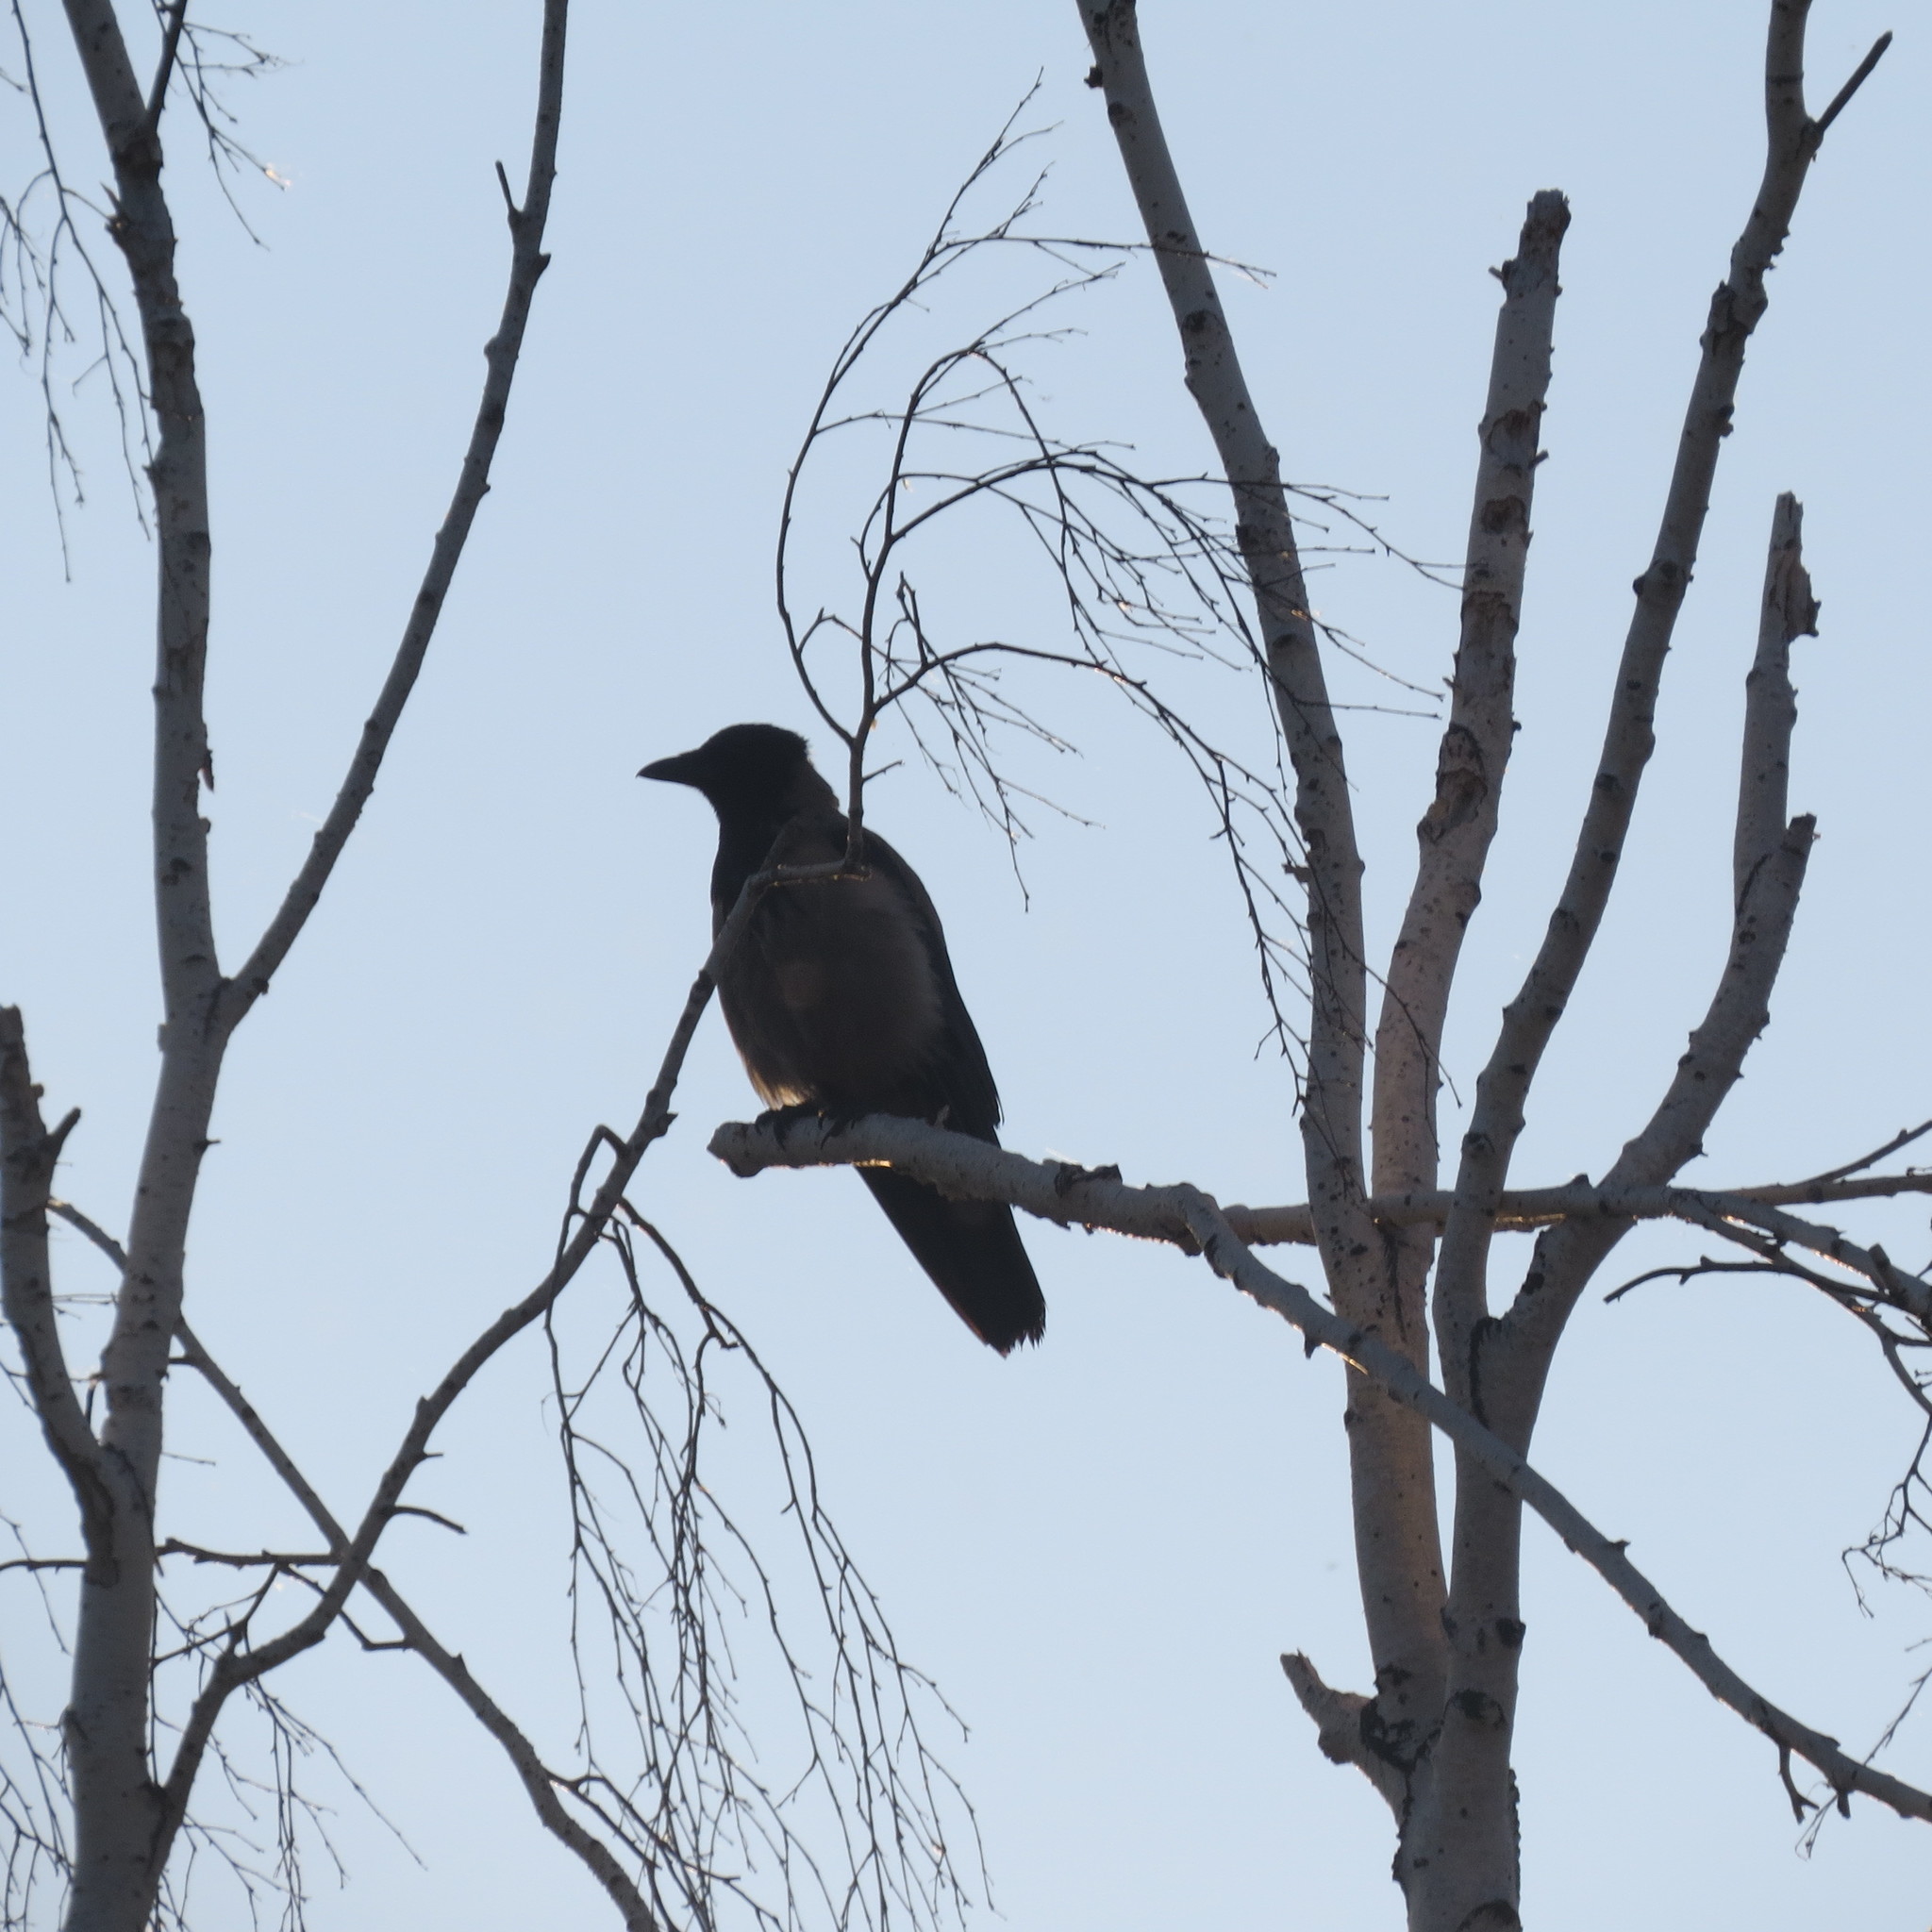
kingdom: Animalia
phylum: Chordata
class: Aves
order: Passeriformes
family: Corvidae
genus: Corvus
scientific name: Corvus cornix
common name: Hooded crow
